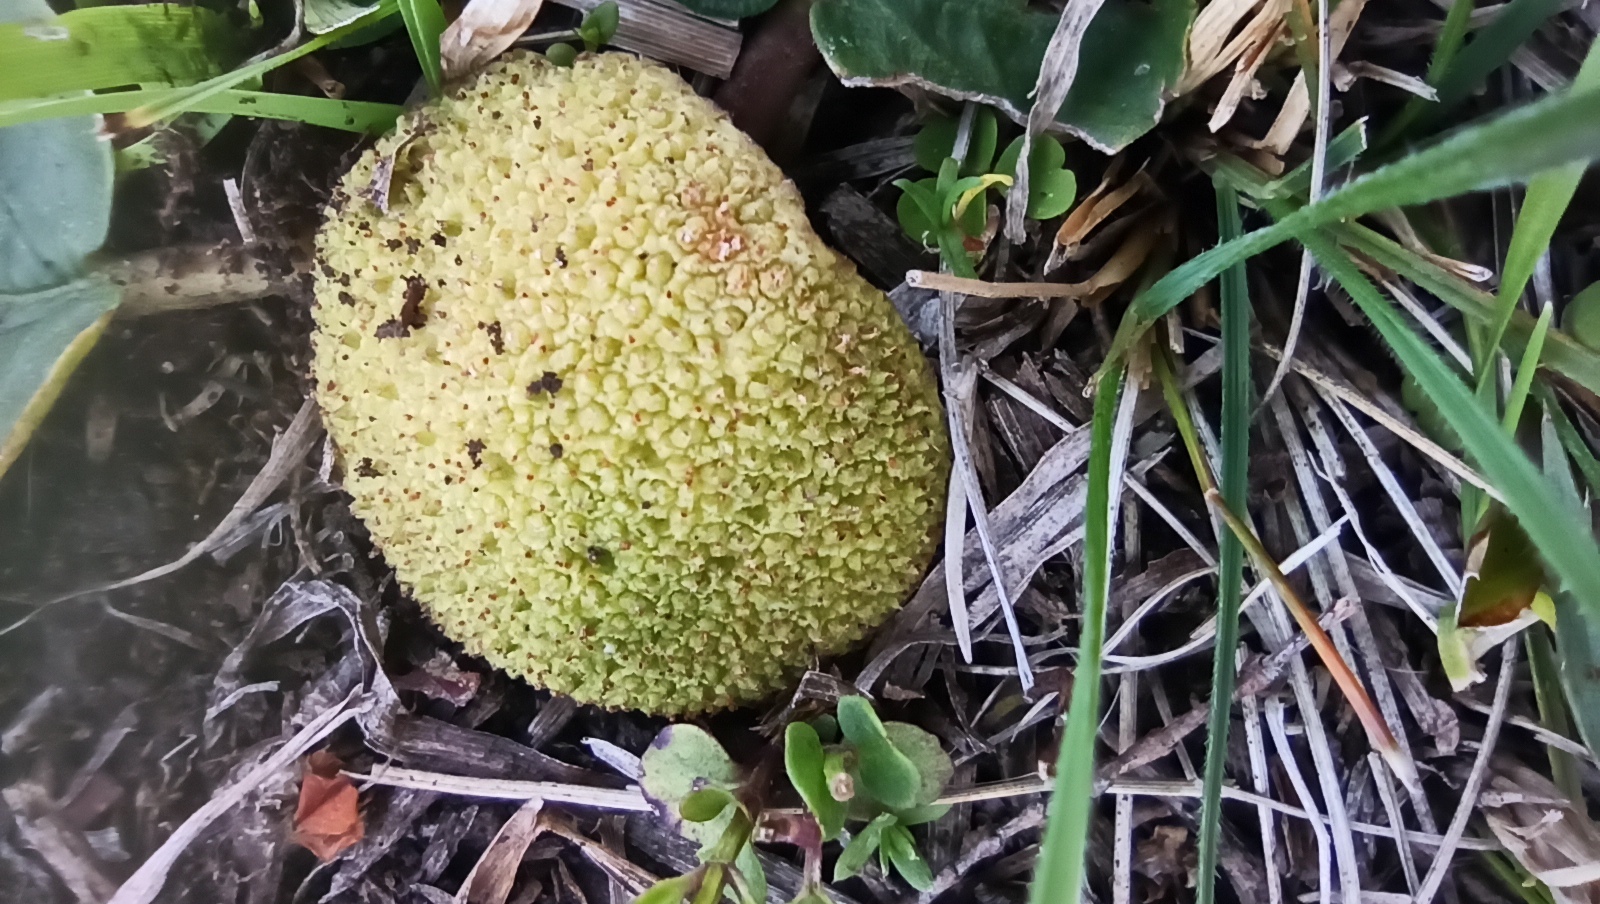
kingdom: Plantae
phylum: Tracheophyta
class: Magnoliopsida
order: Rosales
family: Moraceae
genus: Dorstenia
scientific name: Dorstenia brasiliensis
